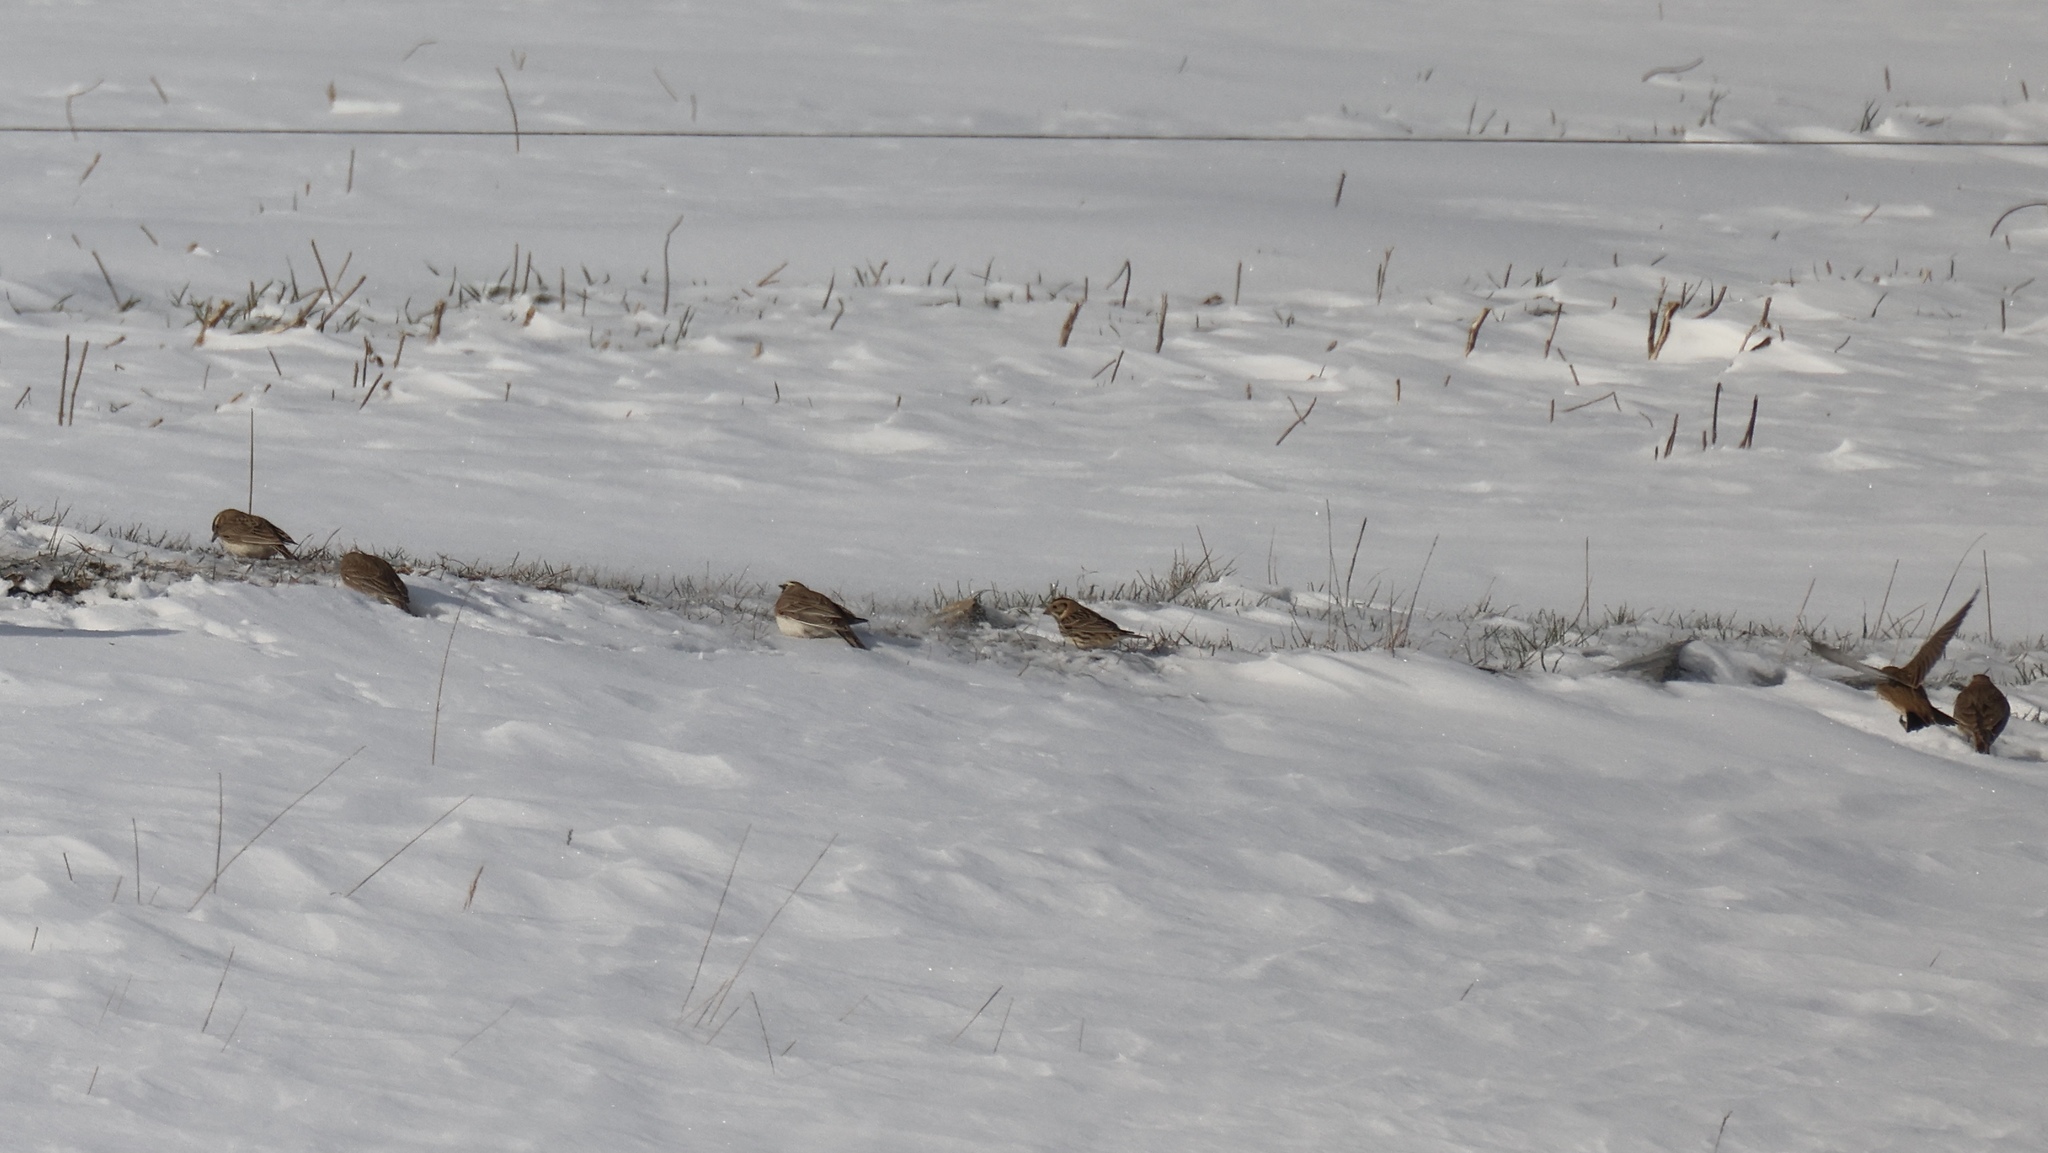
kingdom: Animalia
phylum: Chordata
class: Aves
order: Passeriformes
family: Alaudidae
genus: Eremophila
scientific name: Eremophila alpestris
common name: Horned lark
